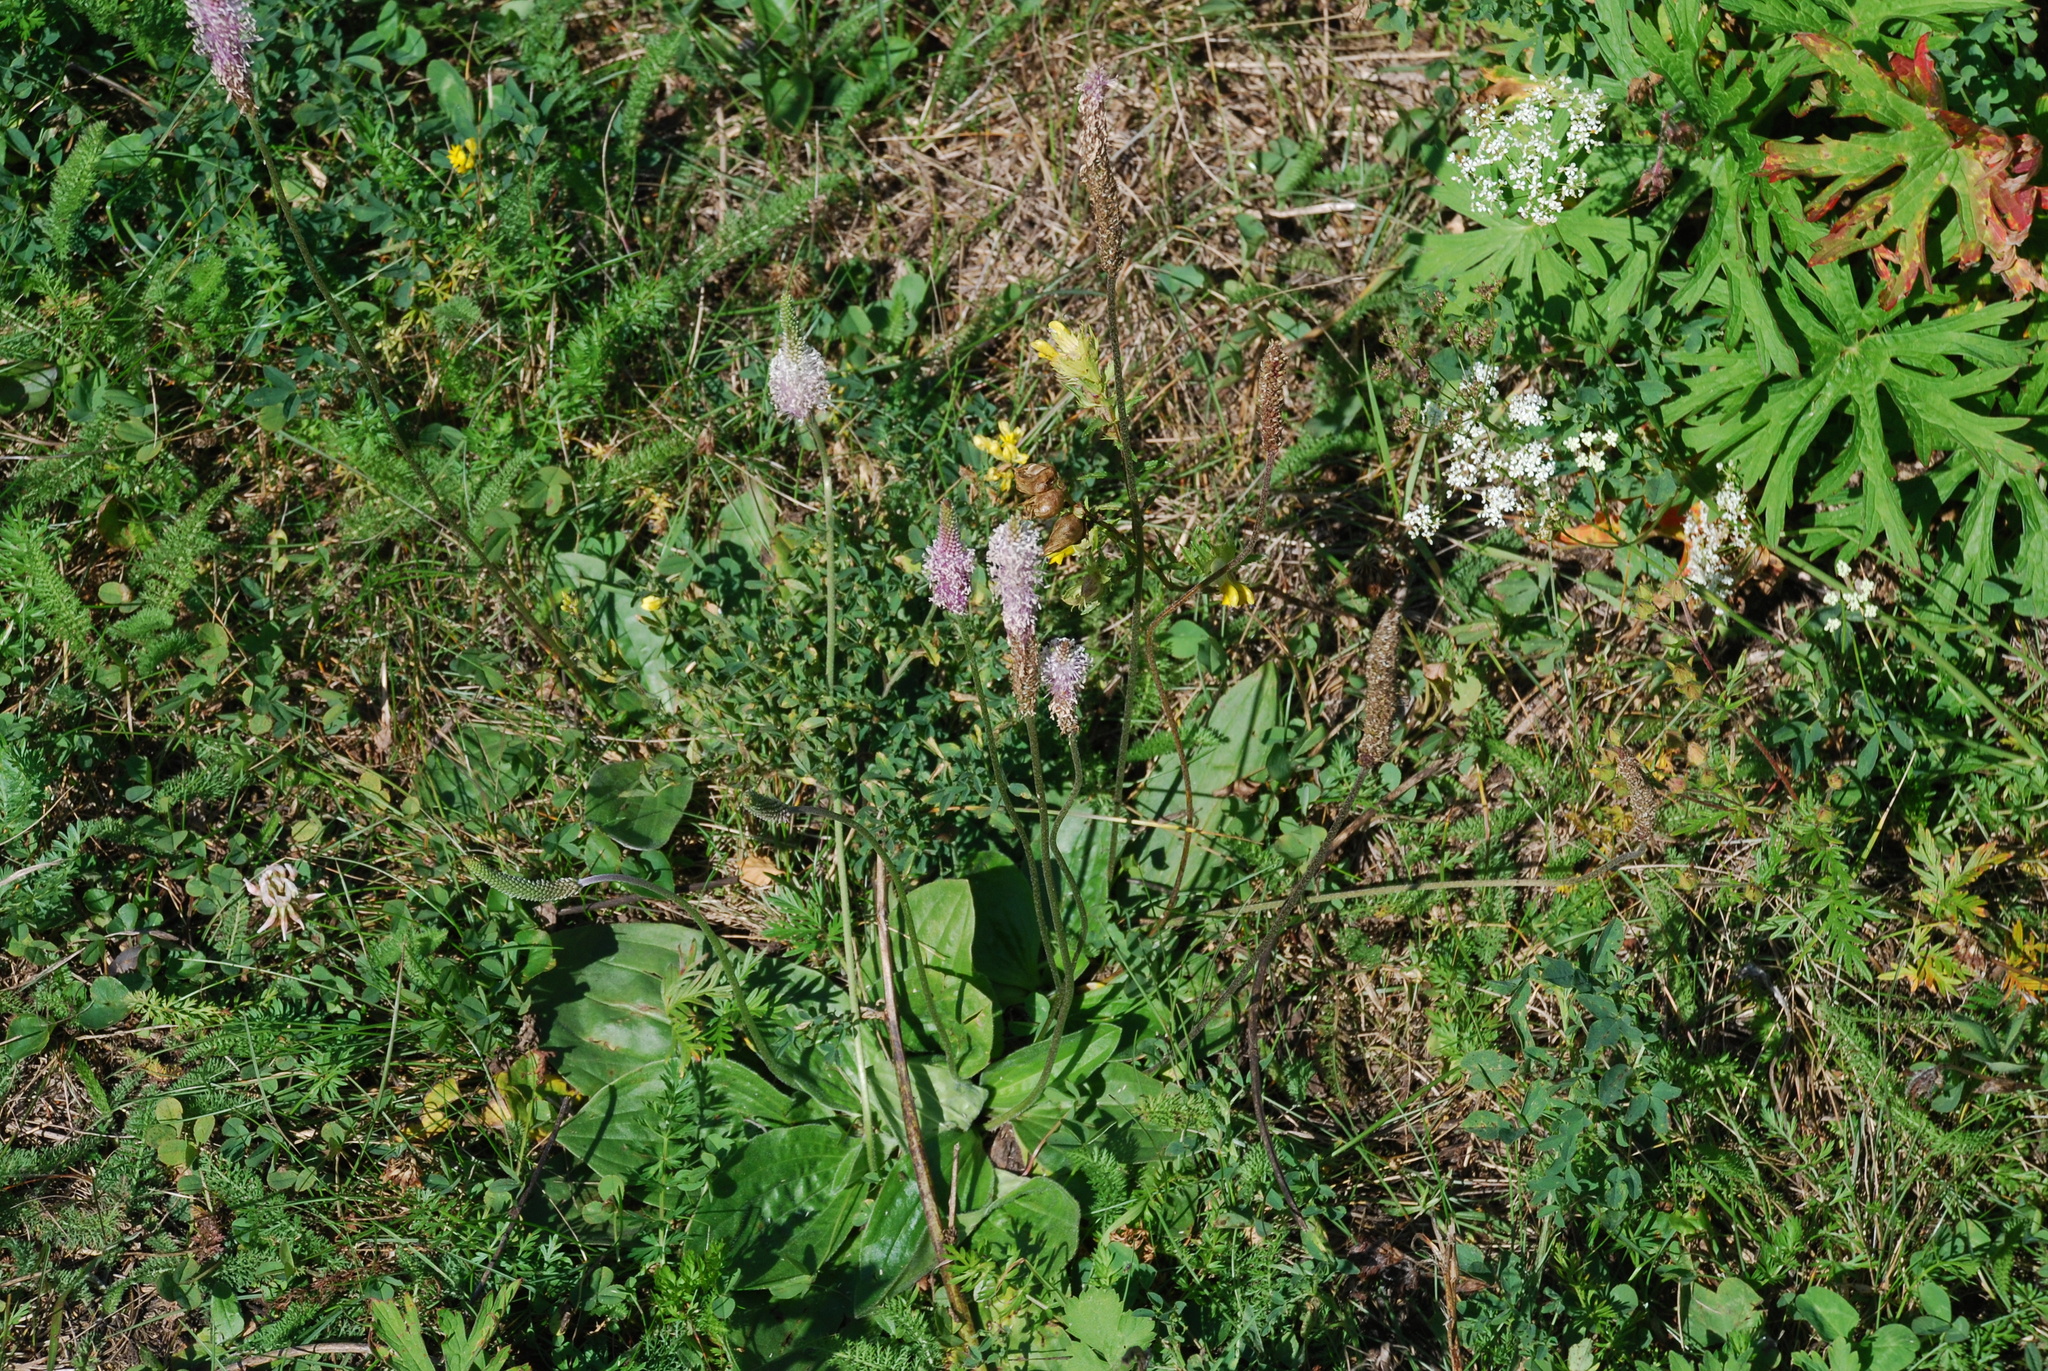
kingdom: Plantae
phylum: Tracheophyta
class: Magnoliopsida
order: Lamiales
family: Plantaginaceae
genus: Plantago
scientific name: Plantago media
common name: Hoary plantain
